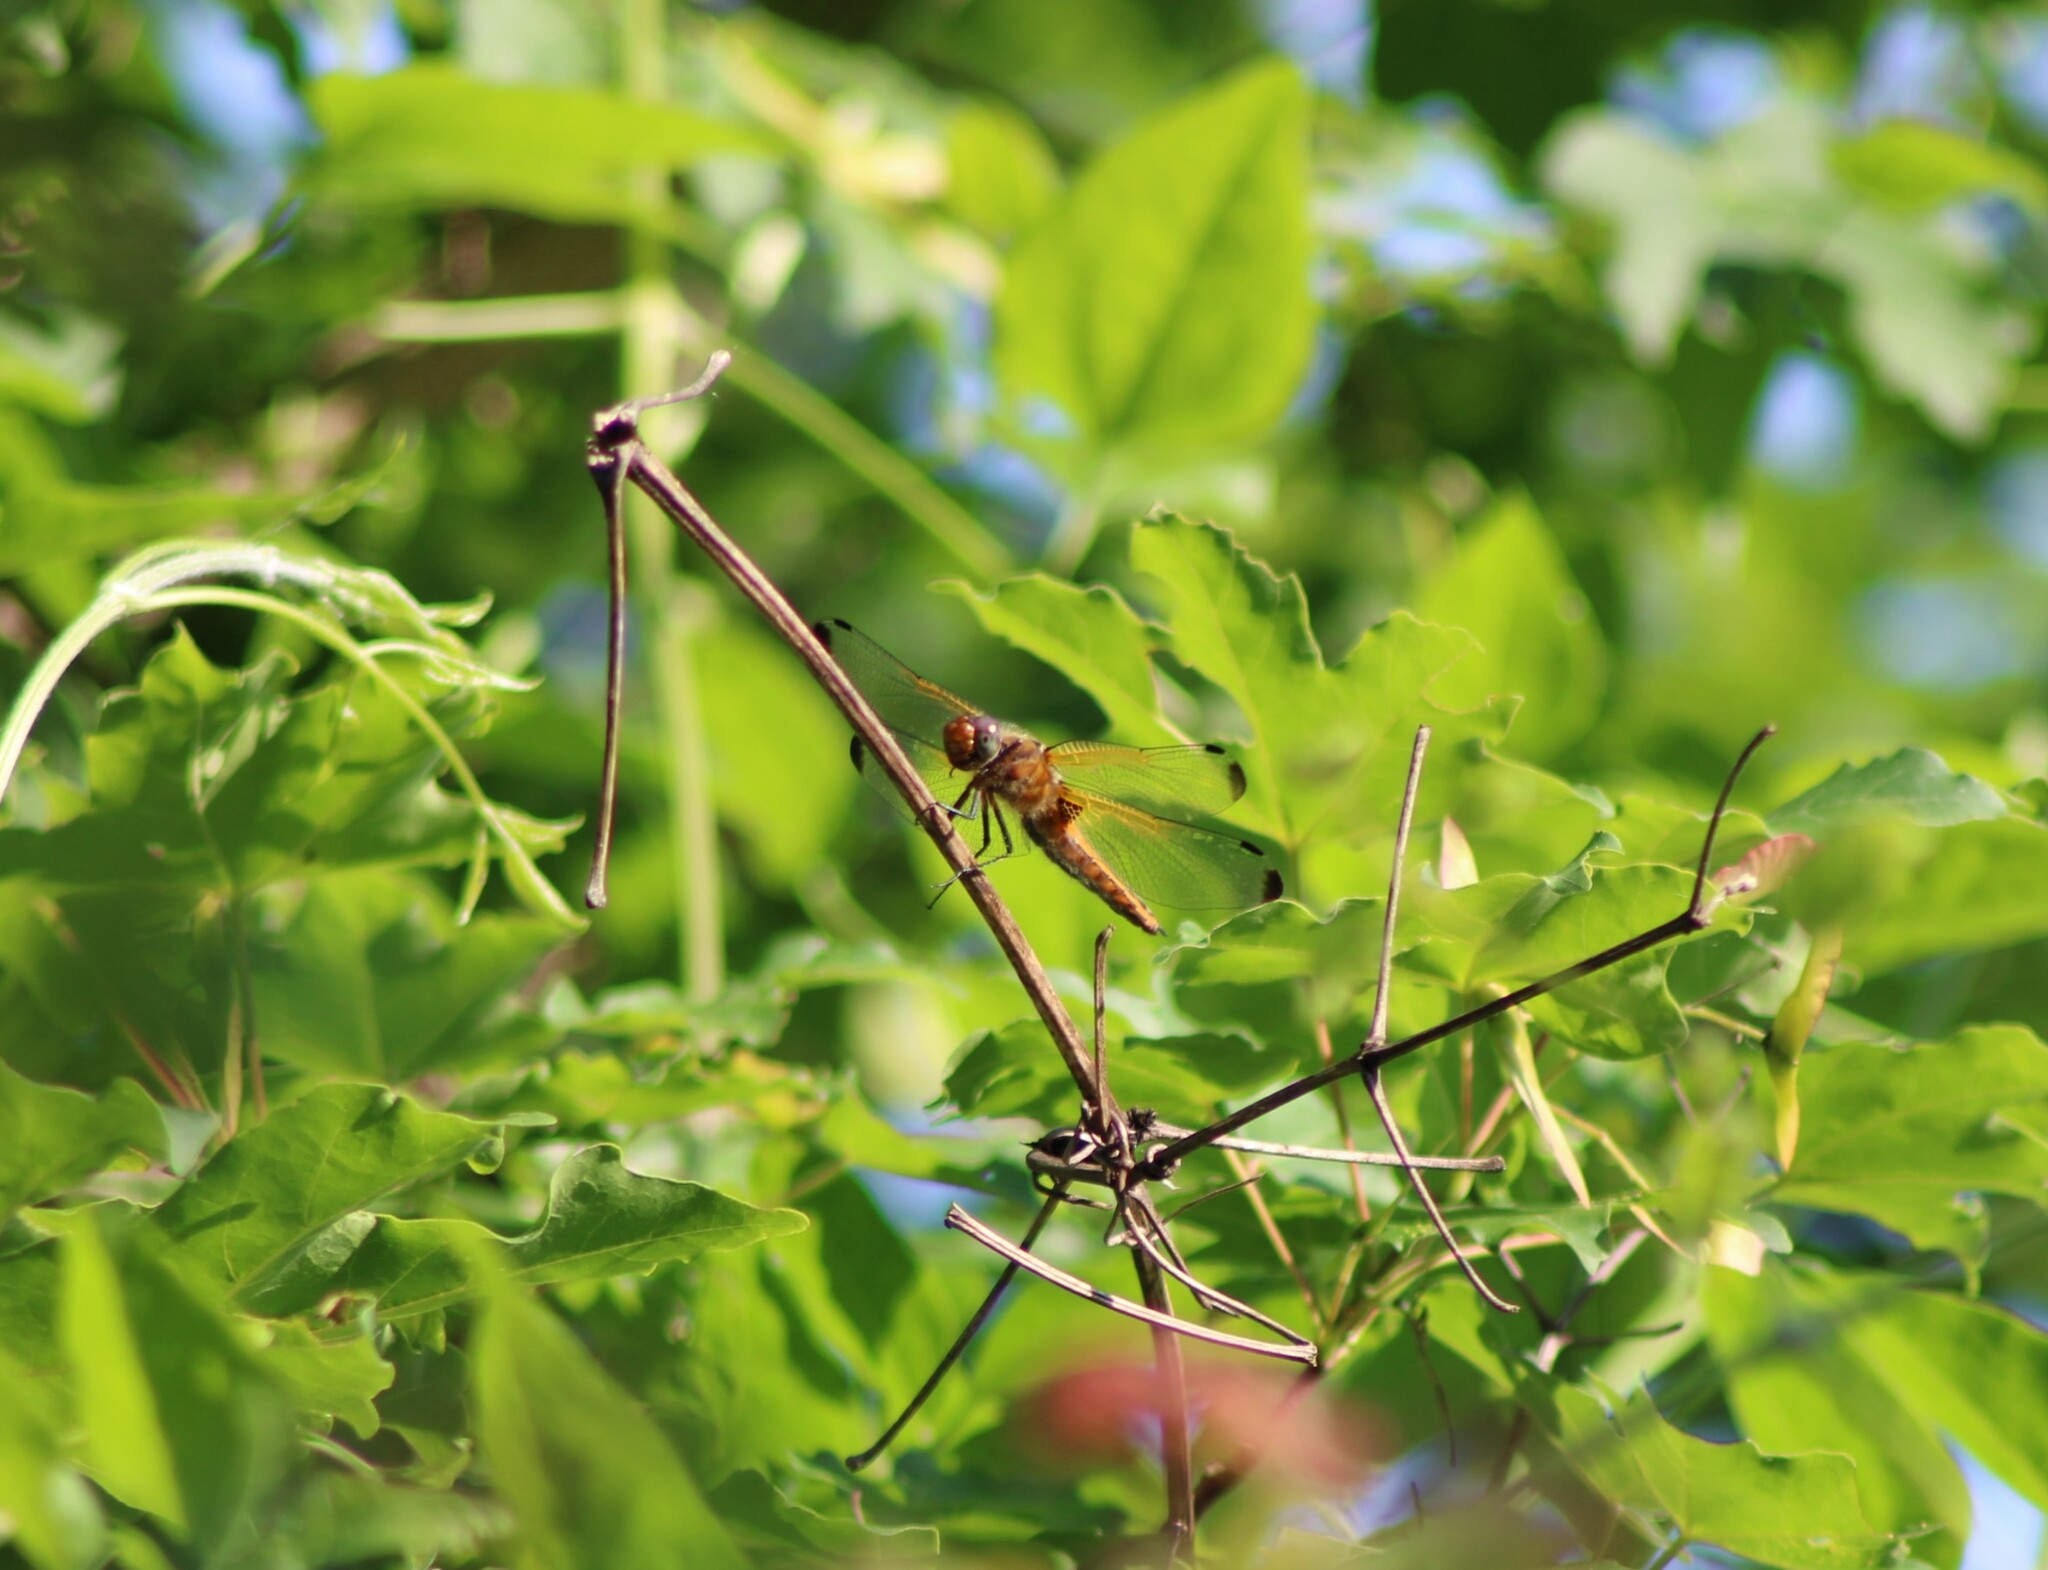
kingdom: Animalia
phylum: Arthropoda
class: Insecta
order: Odonata
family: Libellulidae
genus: Libellula
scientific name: Libellula fulva
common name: Blue chaser
